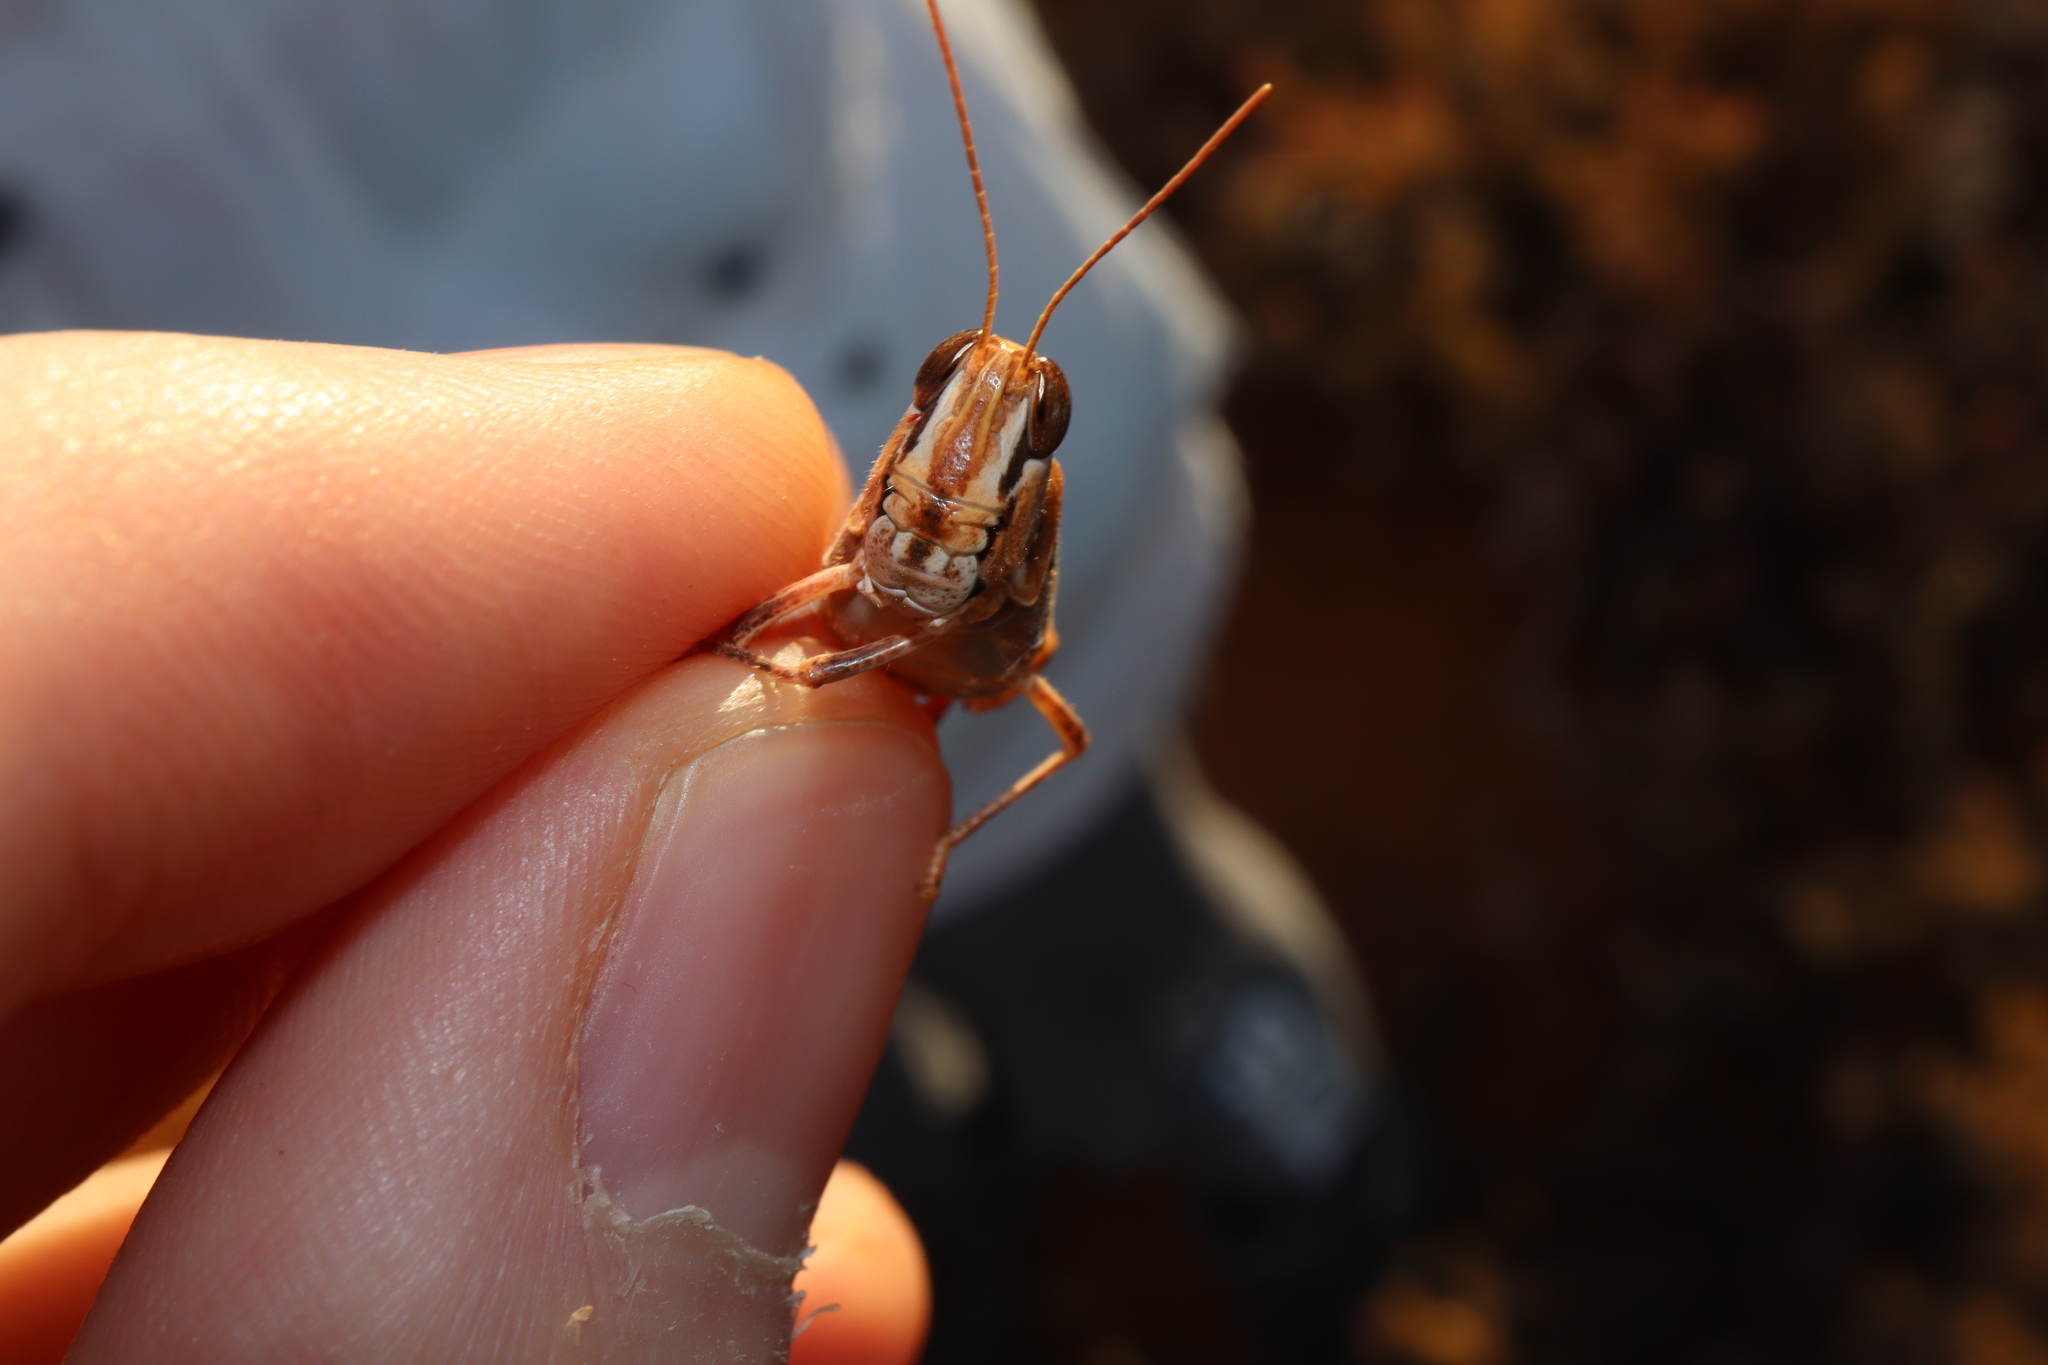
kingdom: Animalia
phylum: Arthropoda
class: Insecta
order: Orthoptera
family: Acrididae
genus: Chortoicetes
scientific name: Chortoicetes terminifera
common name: Australian plague locust
